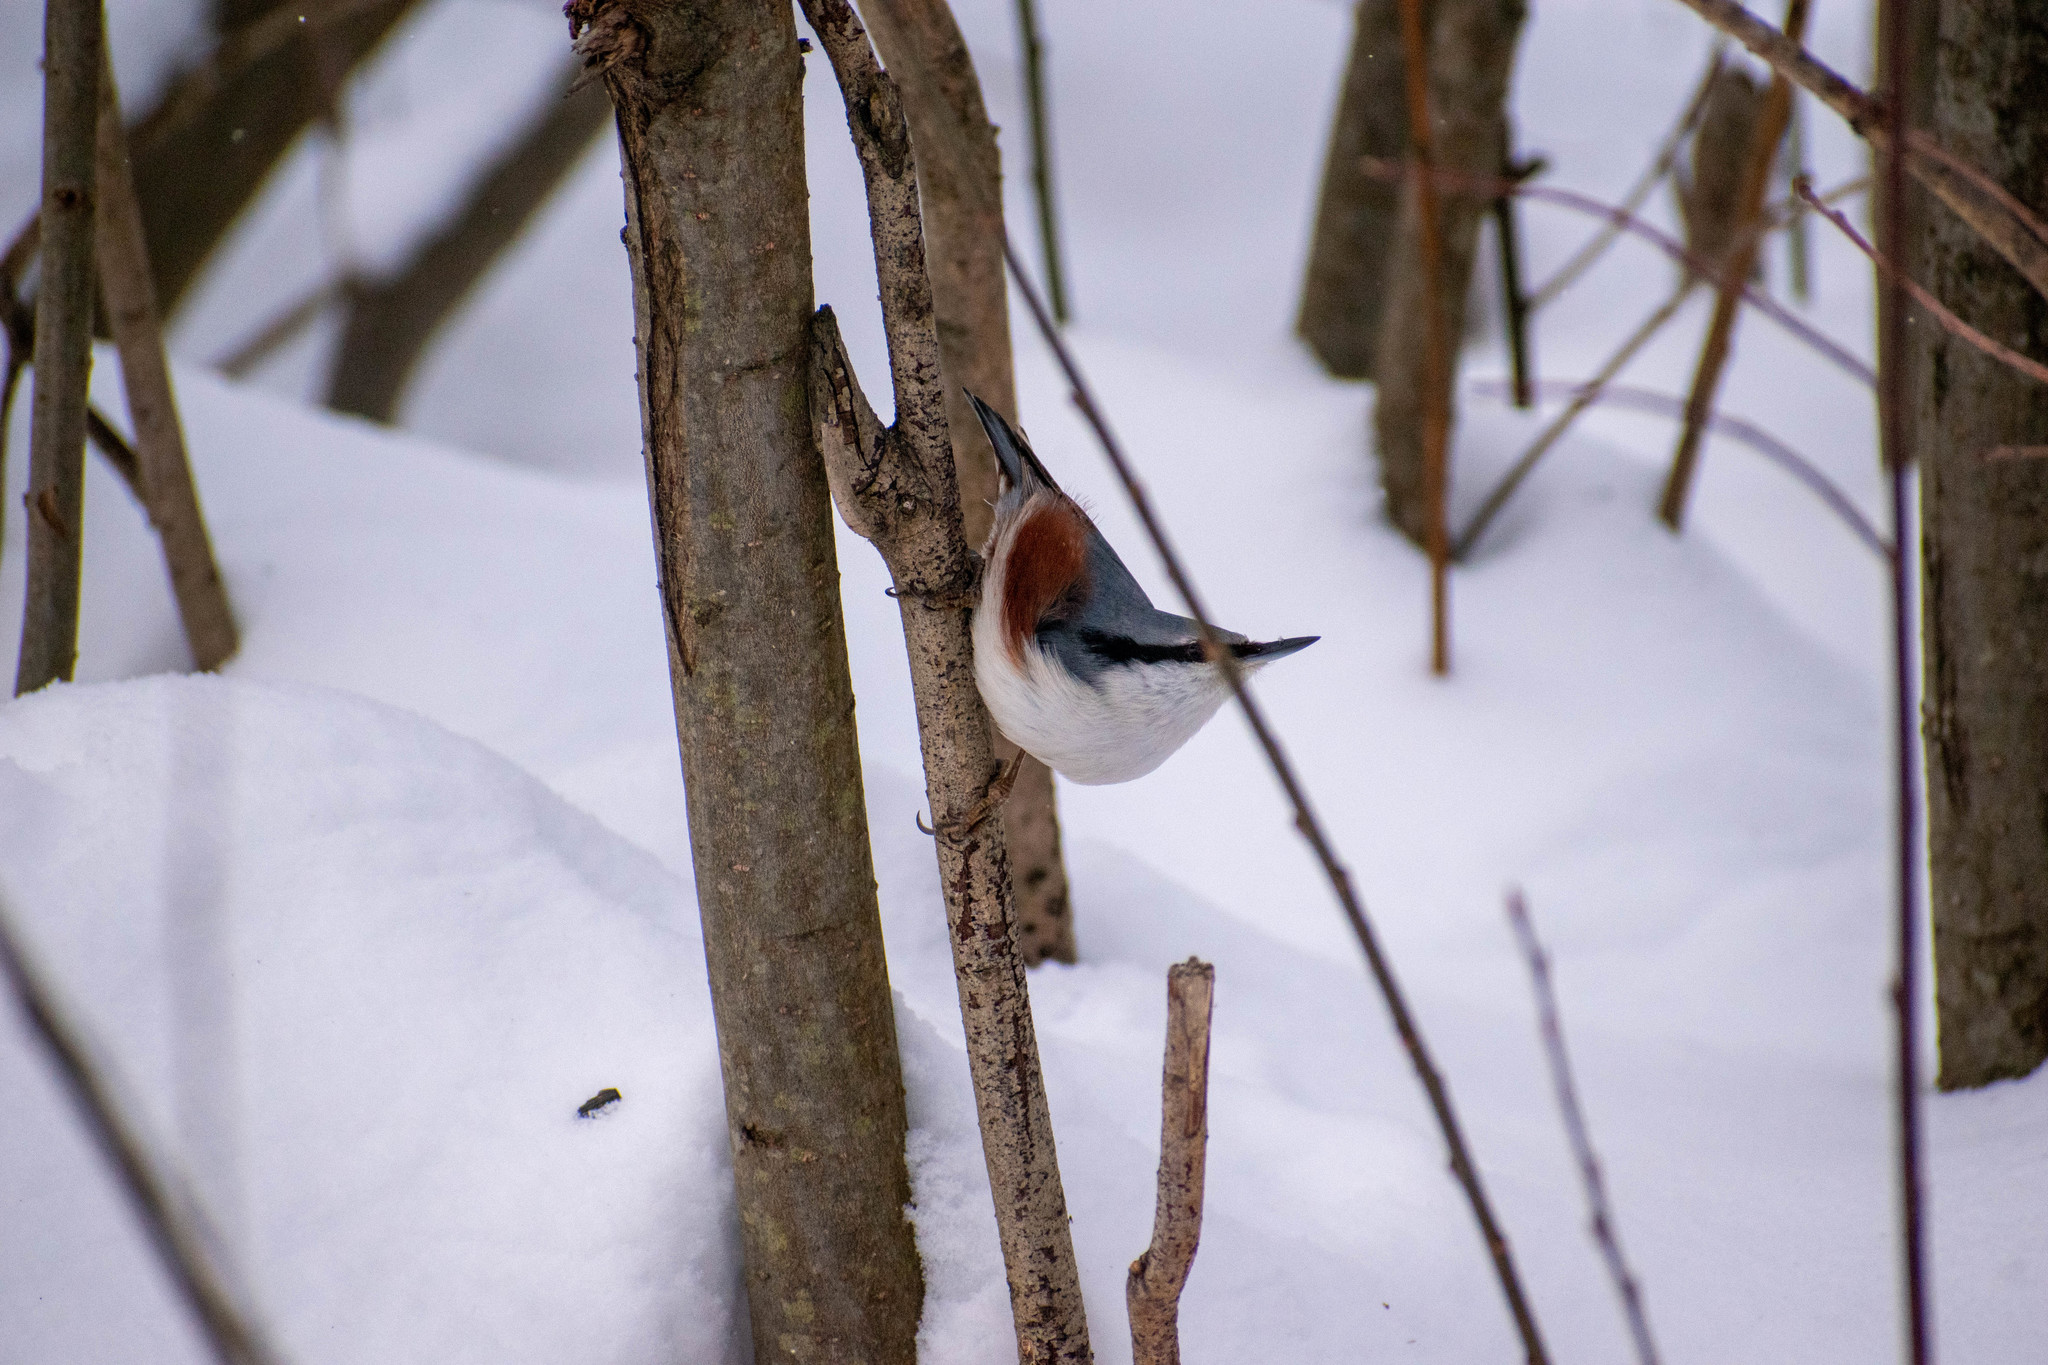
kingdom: Animalia
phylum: Chordata
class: Aves
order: Passeriformes
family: Sittidae
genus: Sitta
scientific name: Sitta europaea
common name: Eurasian nuthatch
